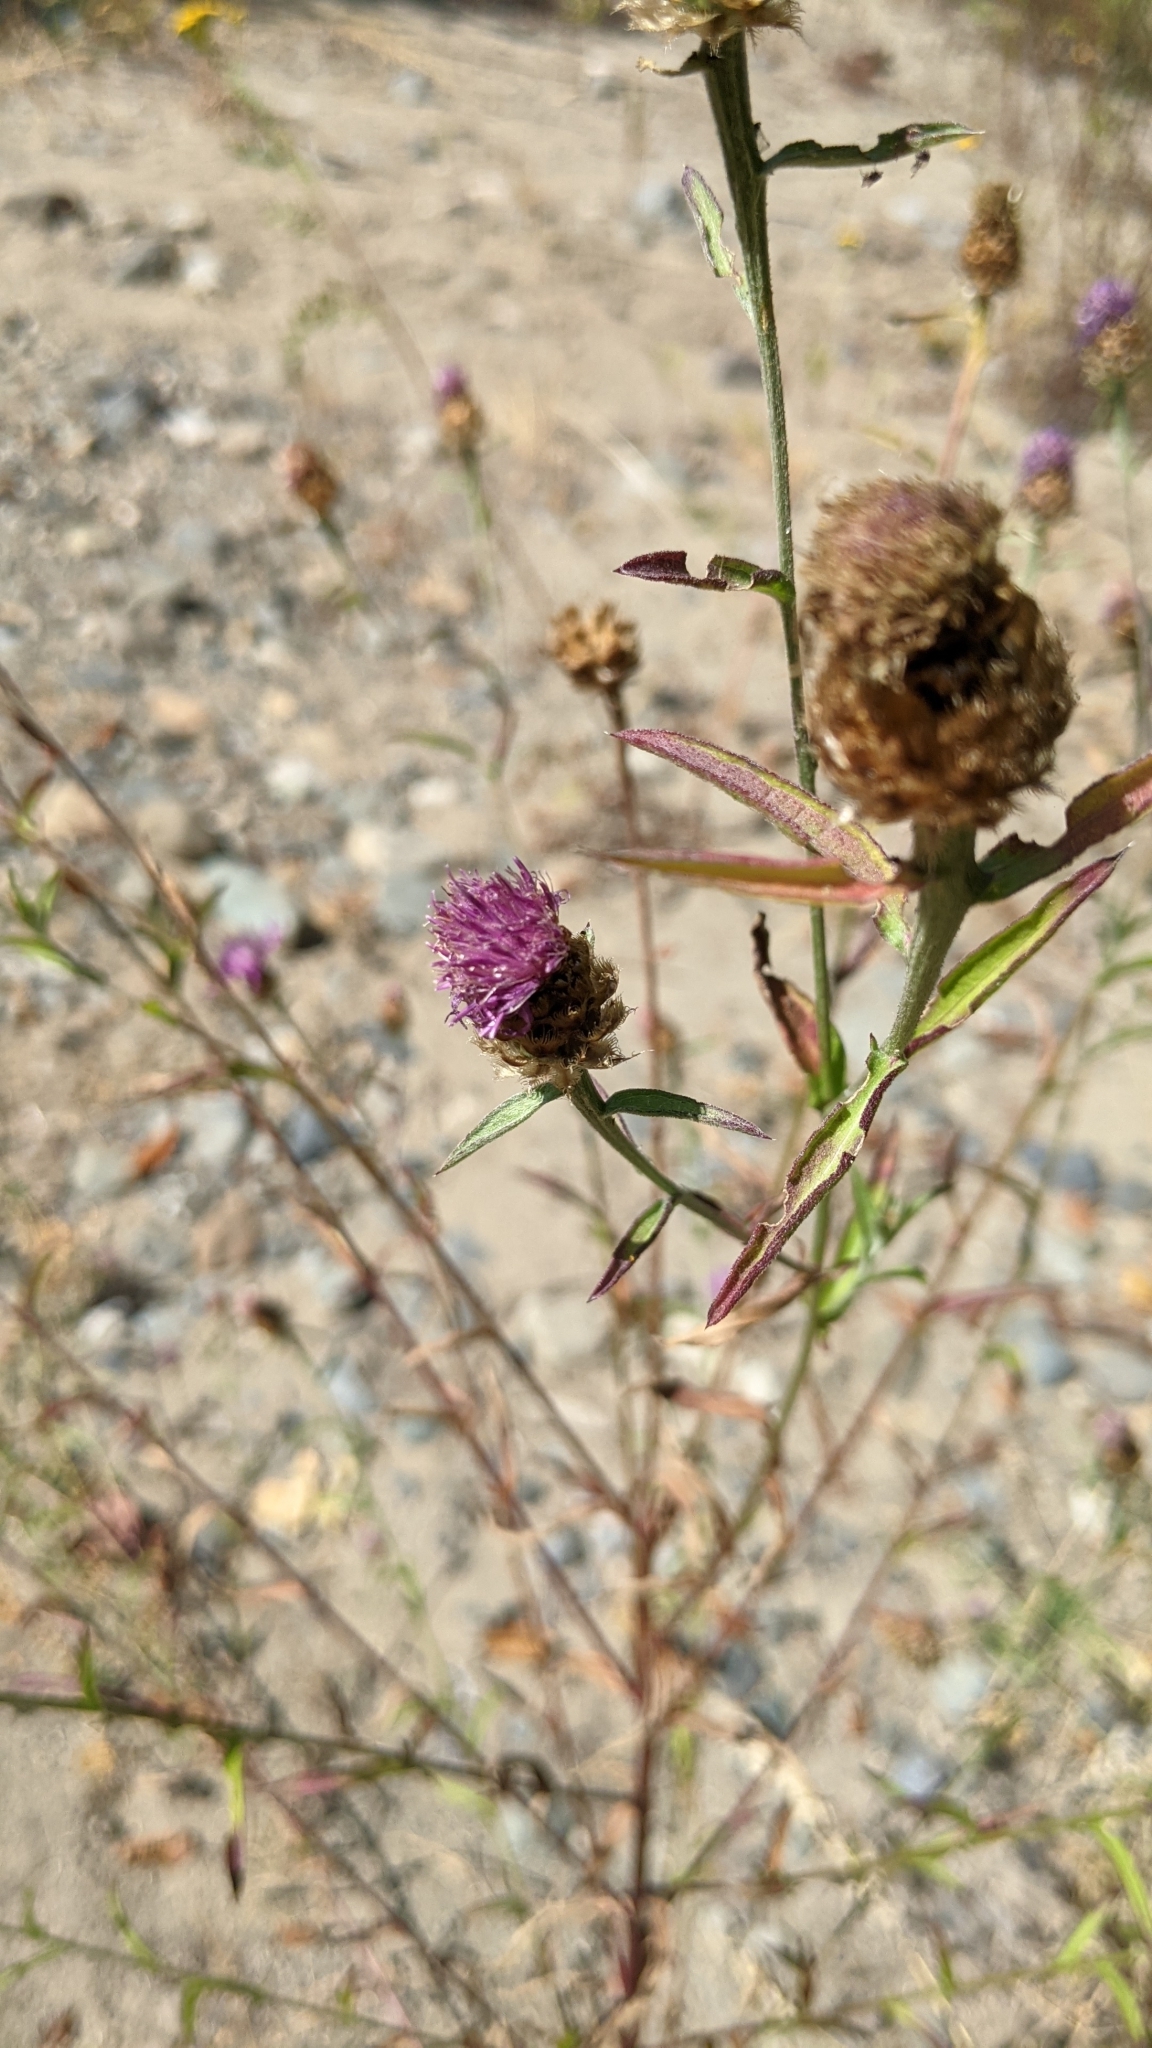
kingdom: Plantae
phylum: Tracheophyta
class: Magnoliopsida
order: Asterales
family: Asteraceae
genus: Centaurea
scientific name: Centaurea nigra
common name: Lesser knapweed
